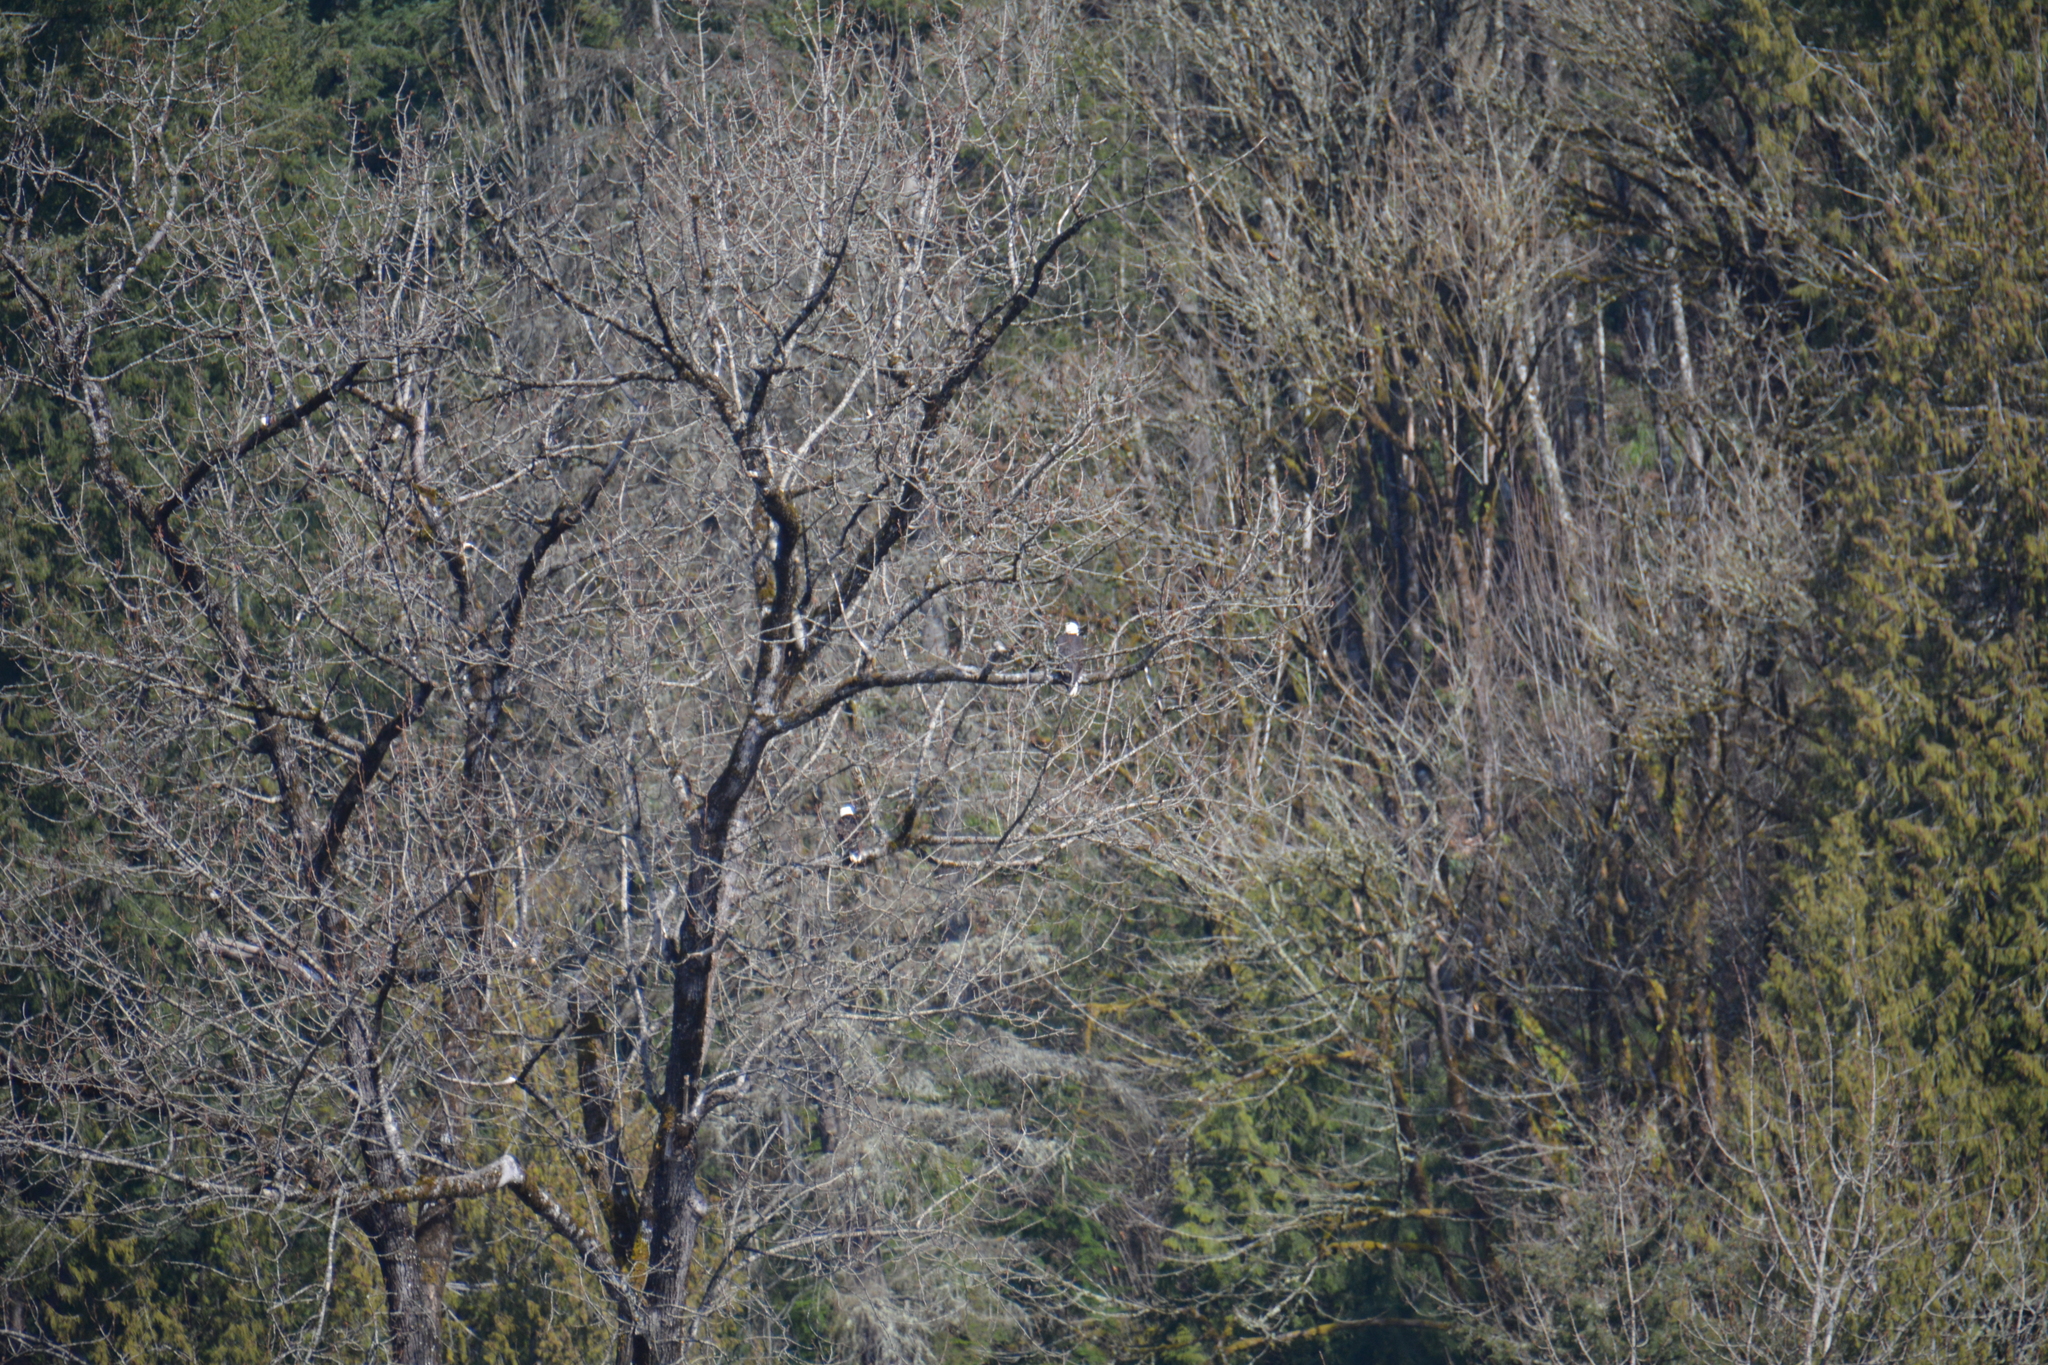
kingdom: Animalia
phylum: Chordata
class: Aves
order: Accipitriformes
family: Accipitridae
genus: Haliaeetus
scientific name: Haliaeetus leucocephalus
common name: Bald eagle
